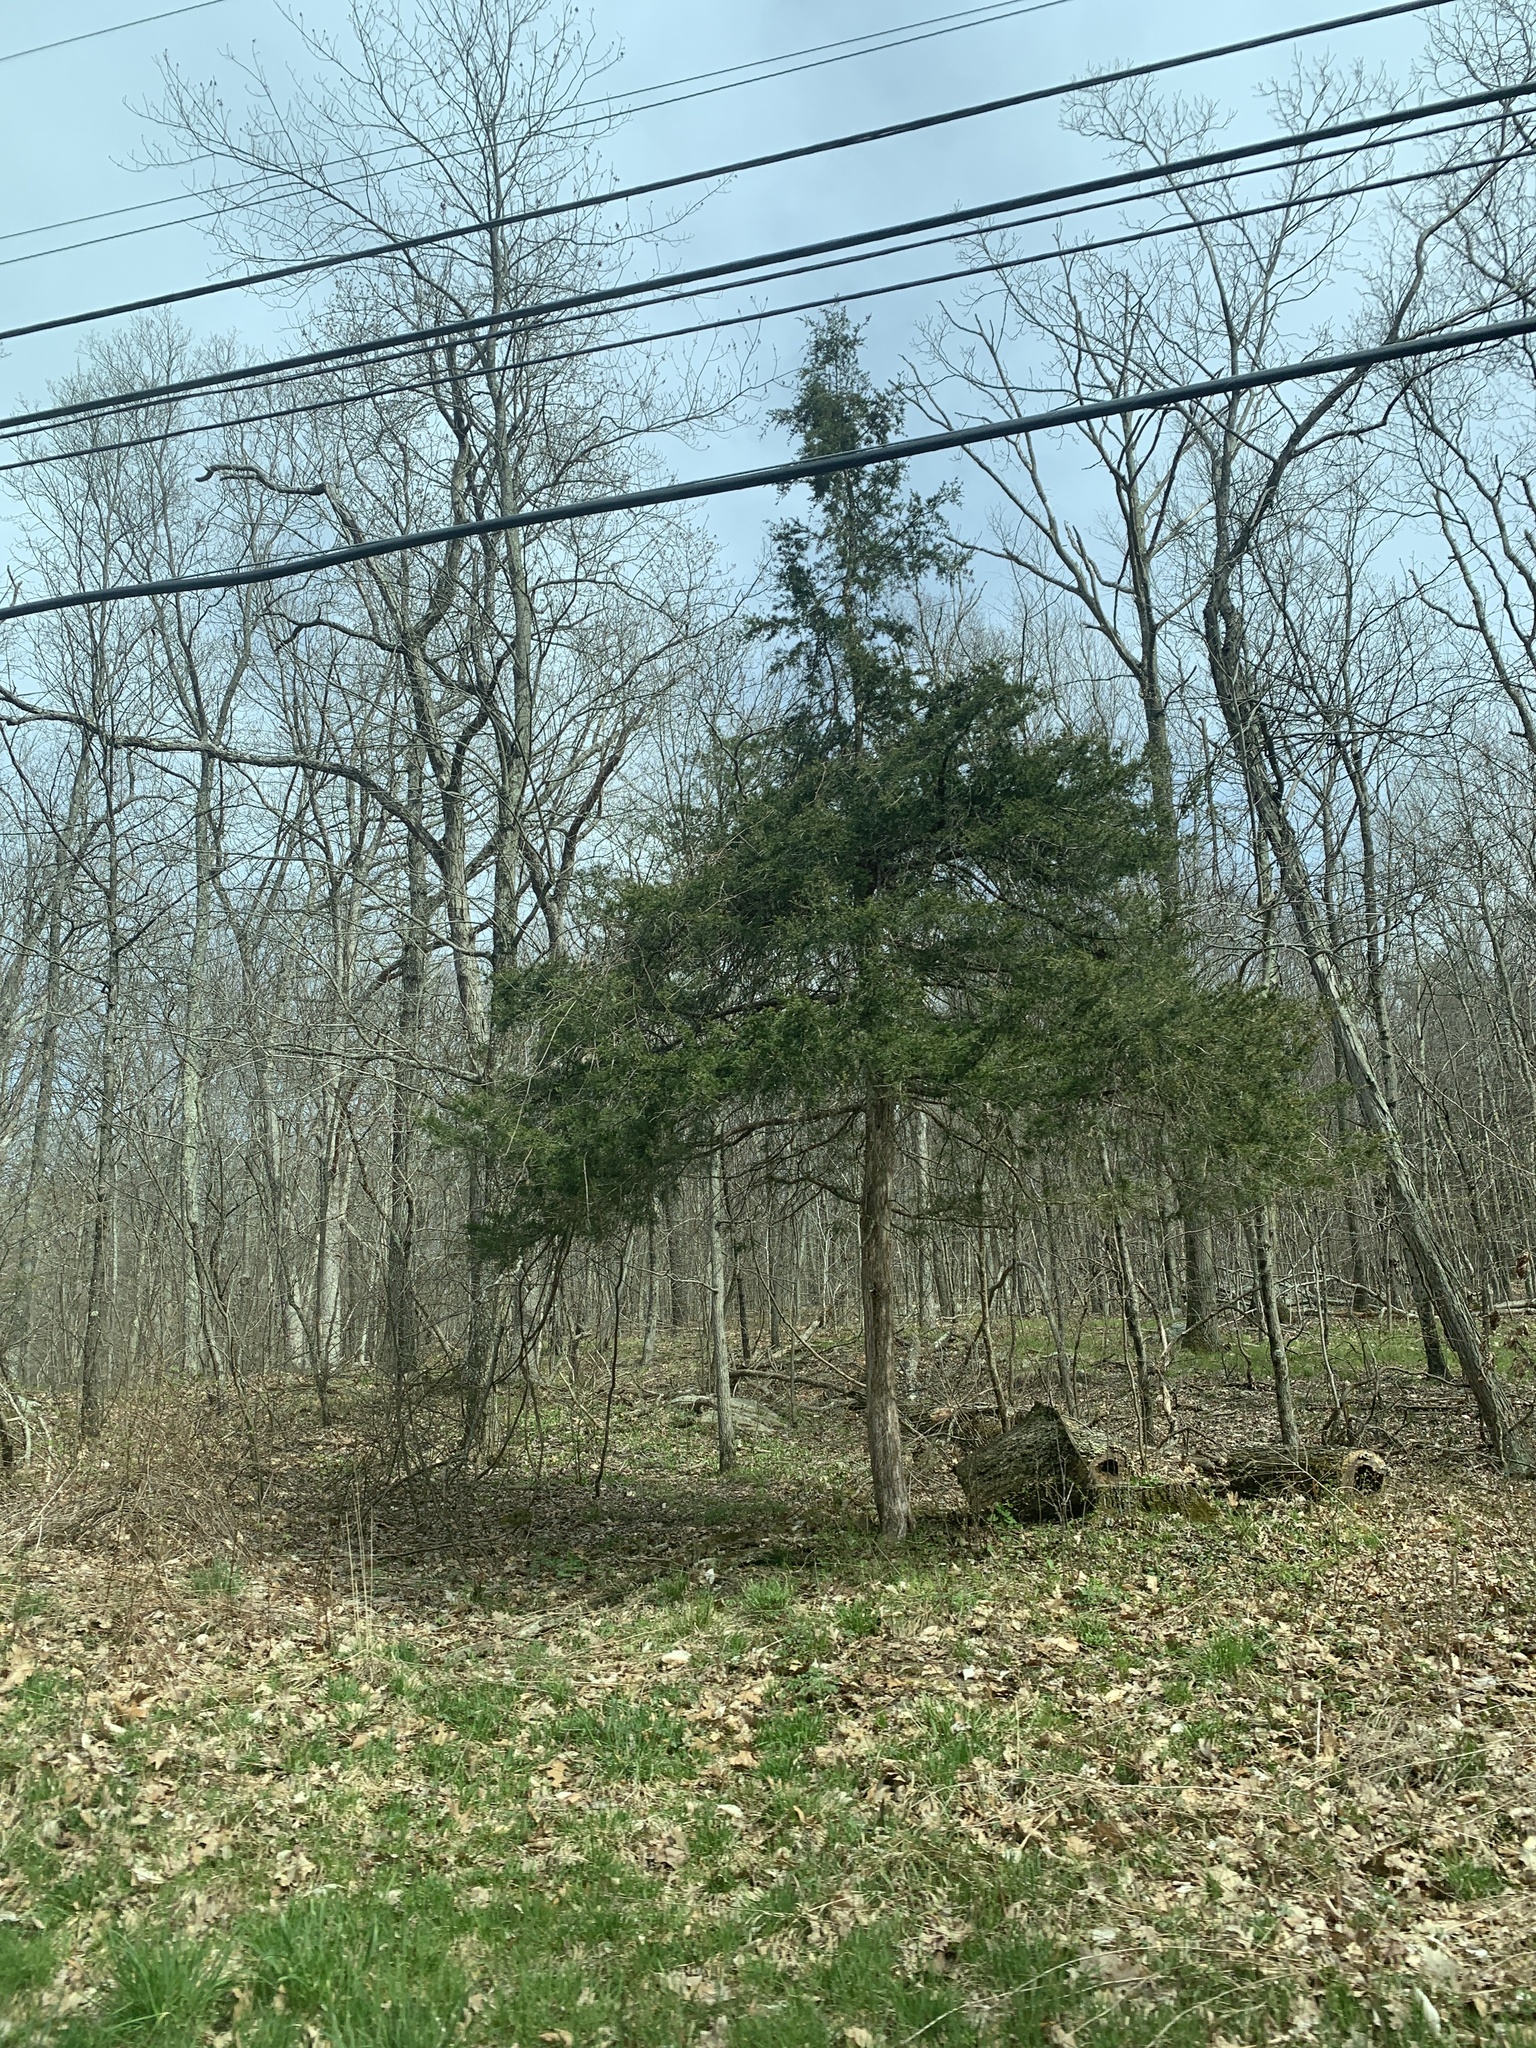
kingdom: Plantae
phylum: Tracheophyta
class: Pinopsida
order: Pinales
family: Cupressaceae
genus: Juniperus
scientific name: Juniperus virginiana
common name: Red juniper
